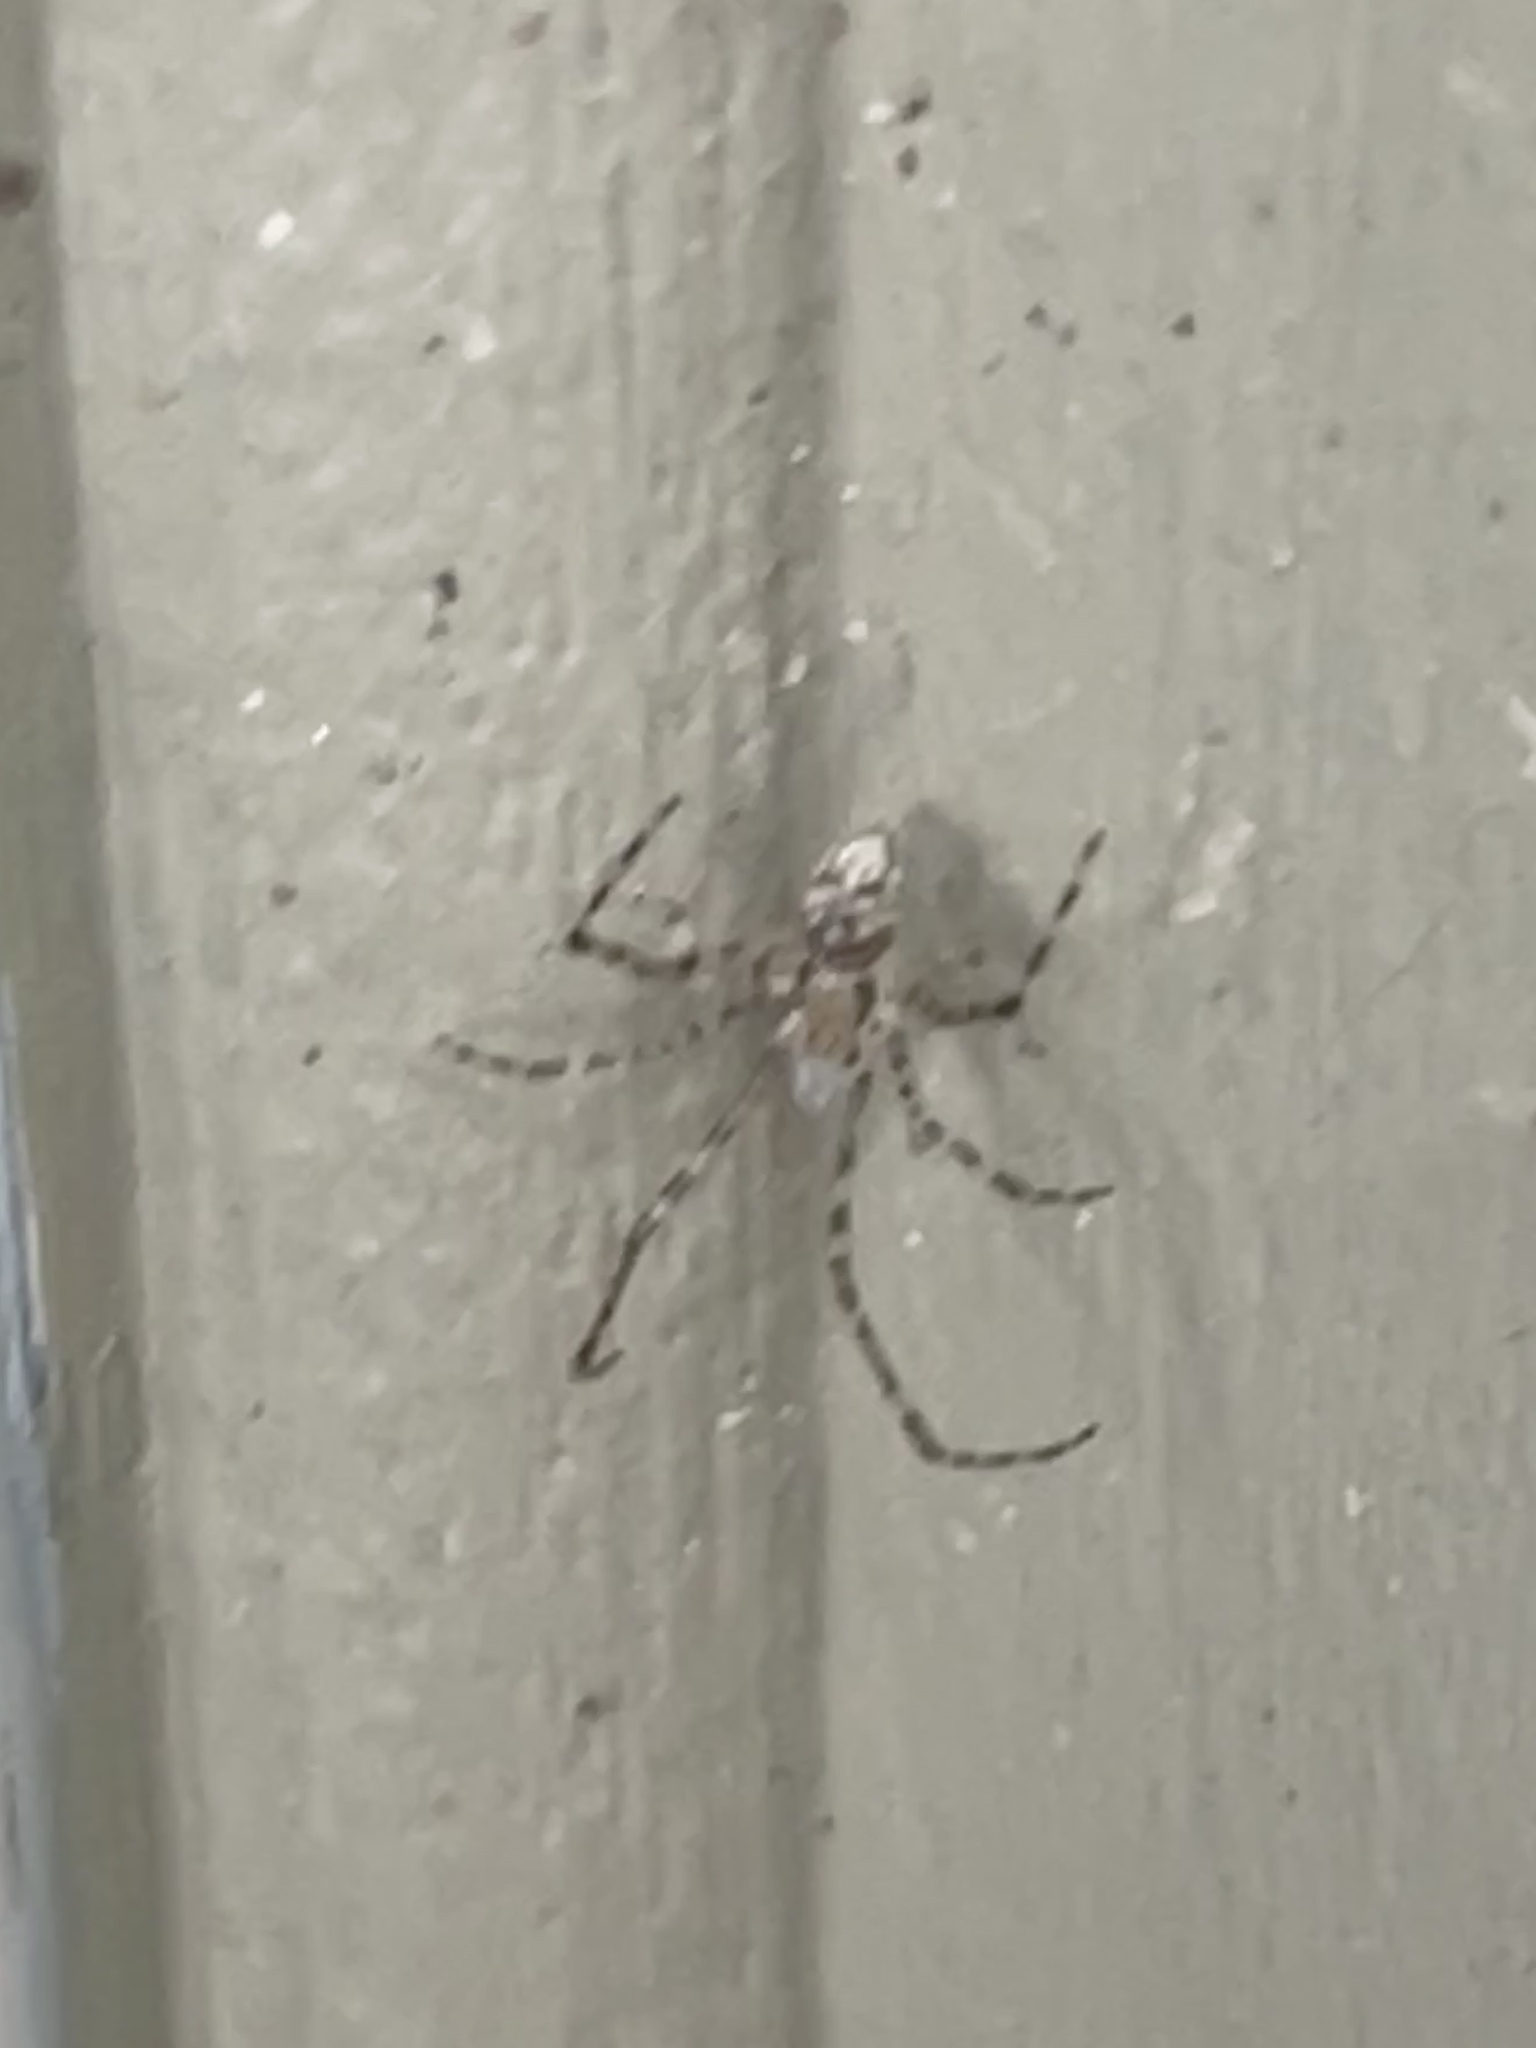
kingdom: Animalia
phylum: Arthropoda
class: Arachnida
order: Araneae
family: Theridiidae
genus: Cryptachaea
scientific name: Cryptachaea gigantipes
